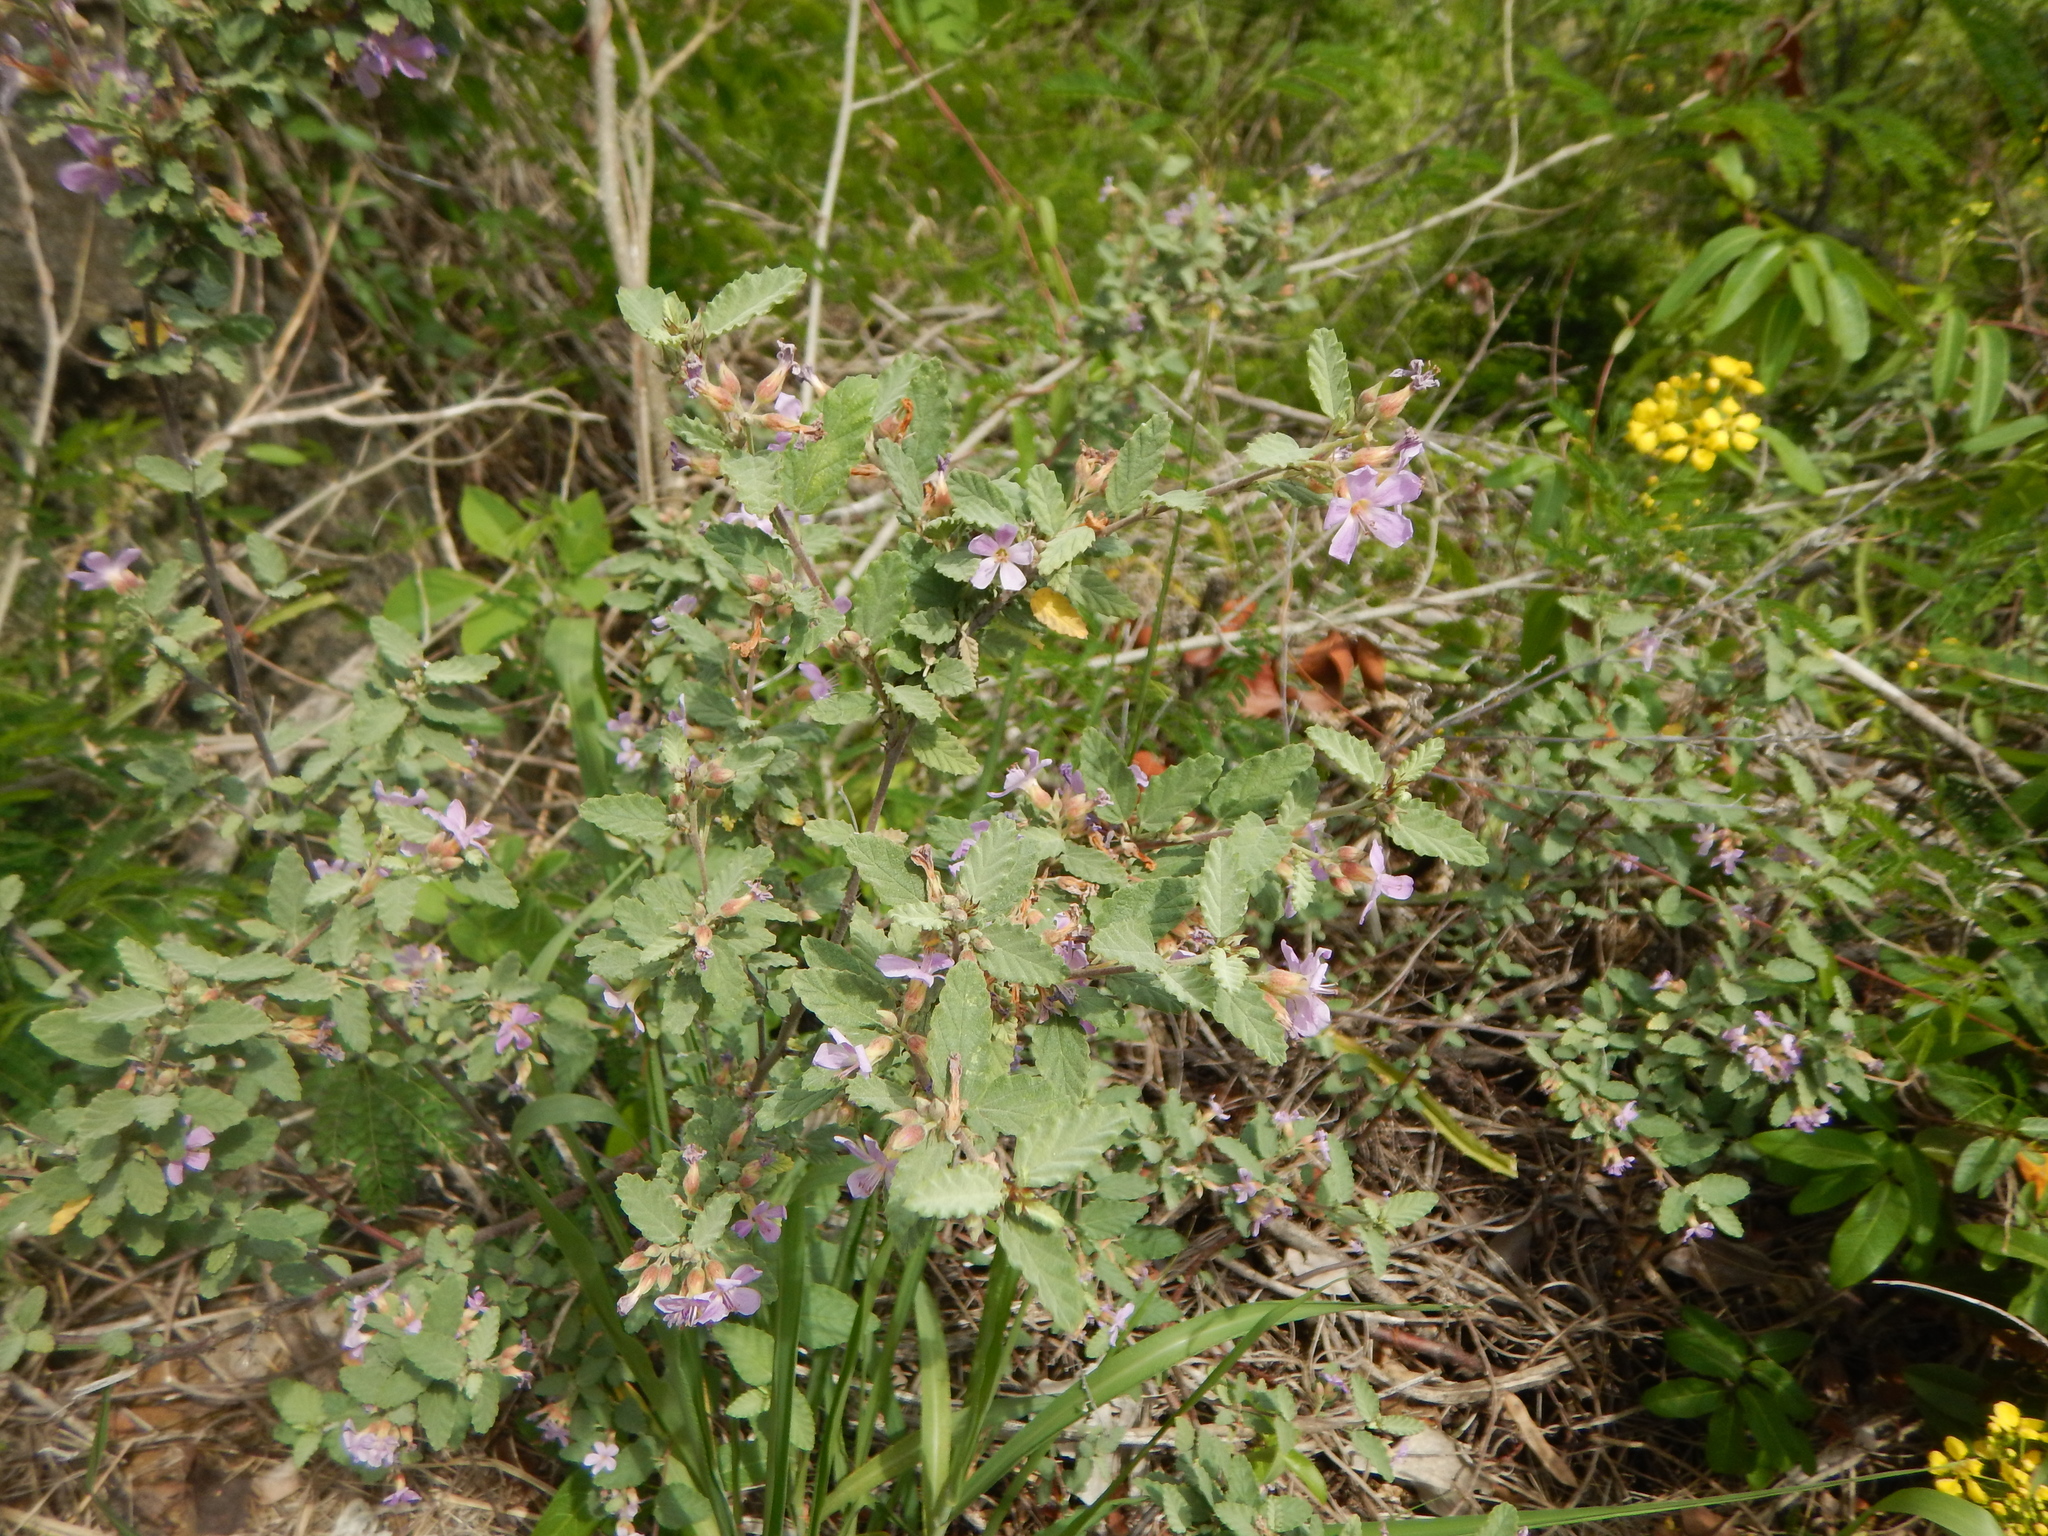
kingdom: Plantae
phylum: Tracheophyta
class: Magnoliopsida
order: Malvales
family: Malvaceae
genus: Melochia
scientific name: Melochia tomentosa
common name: Black torch
